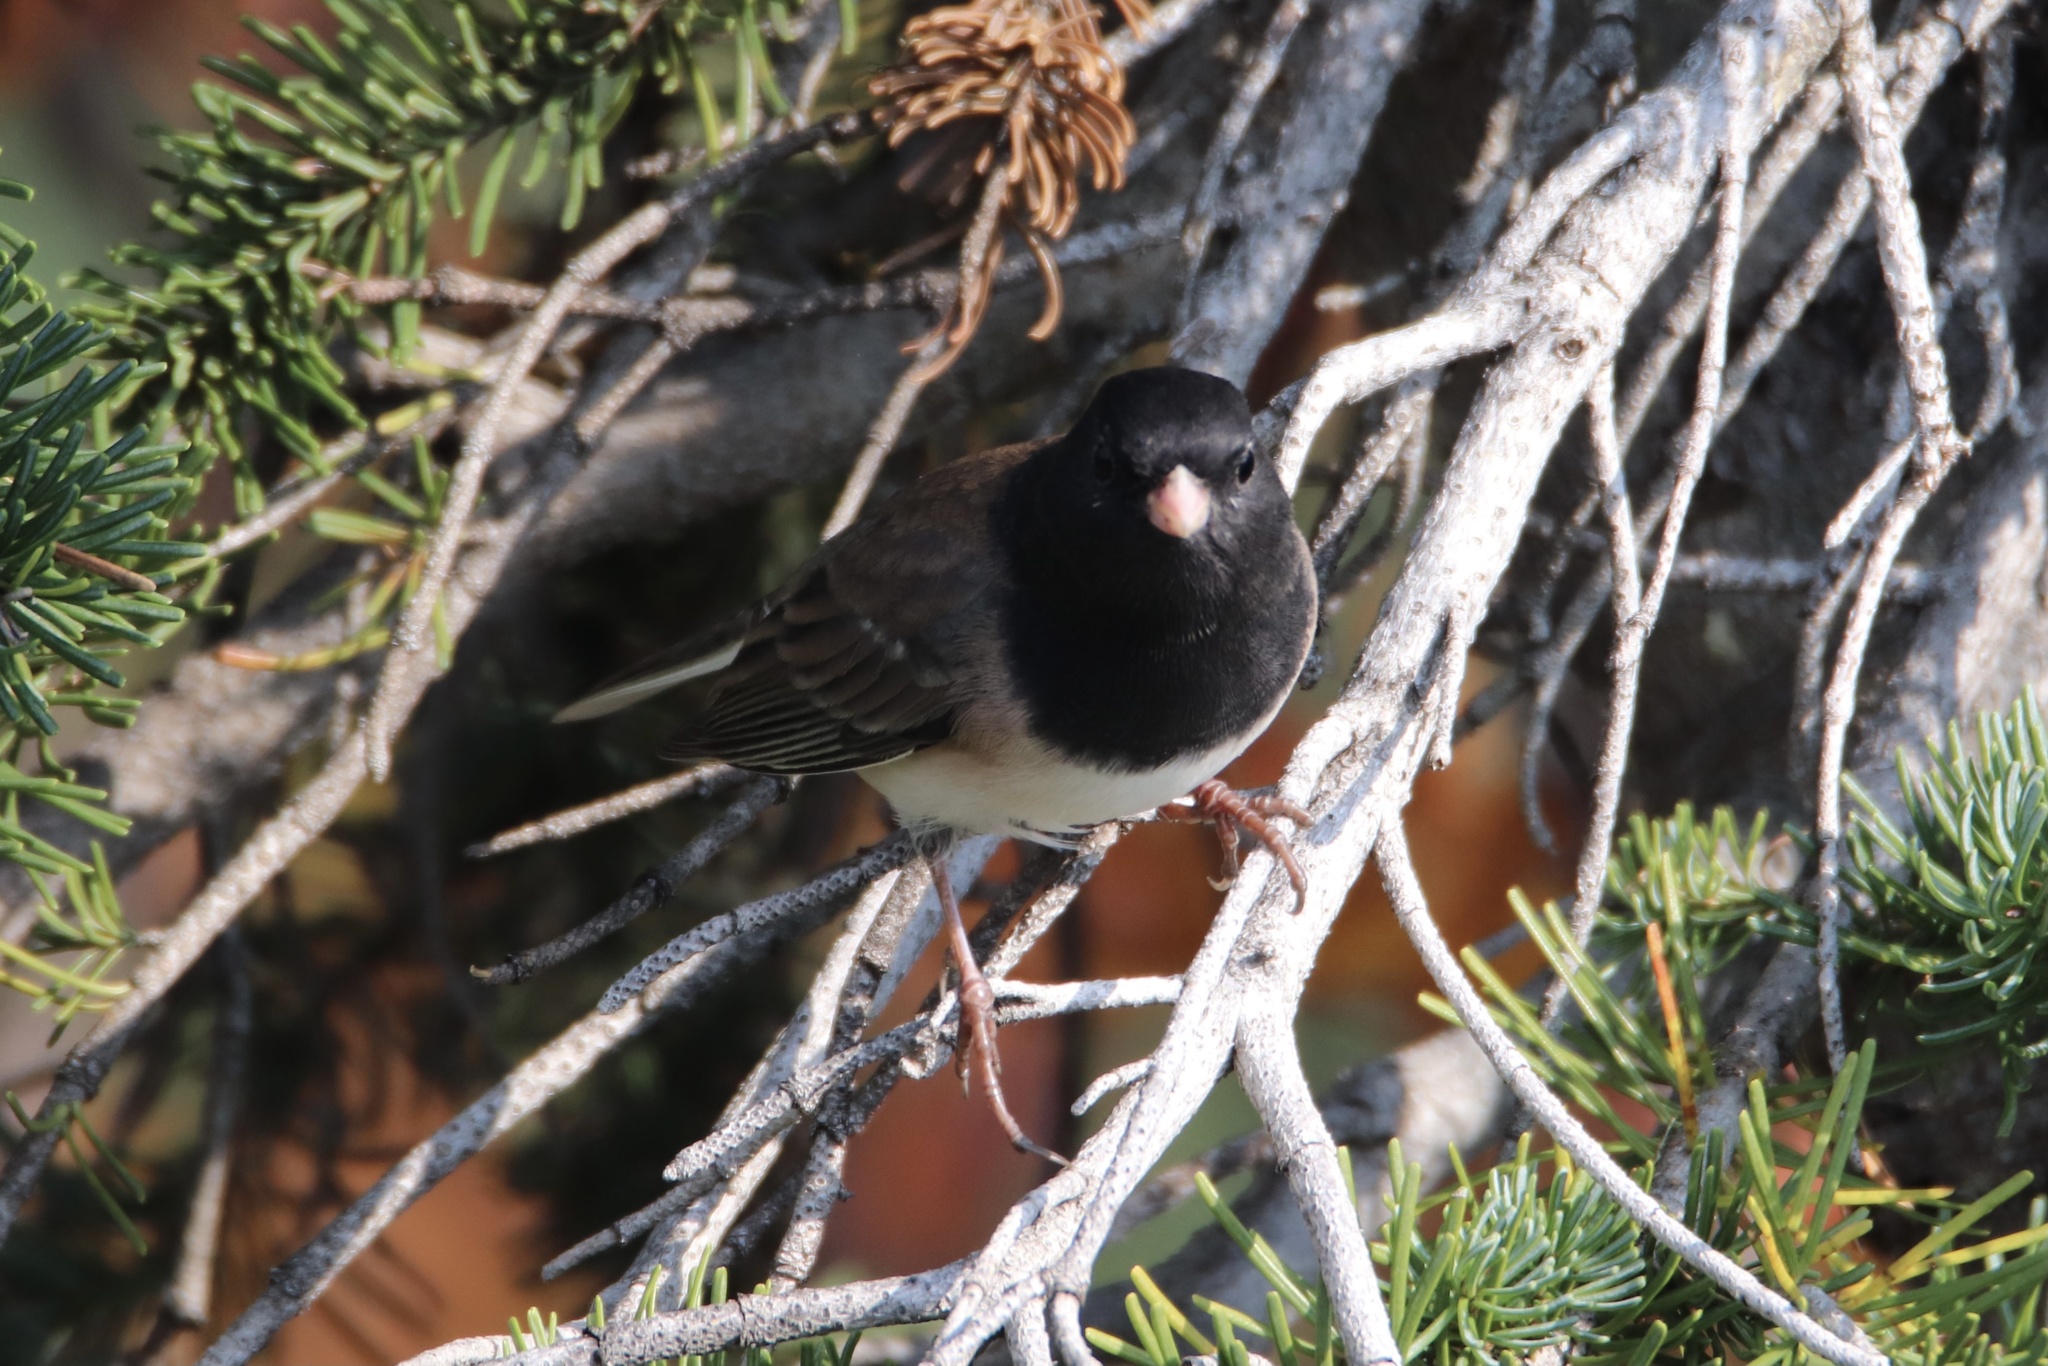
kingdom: Animalia
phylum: Chordata
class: Aves
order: Passeriformes
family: Passerellidae
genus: Junco
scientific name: Junco hyemalis
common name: Dark-eyed junco
